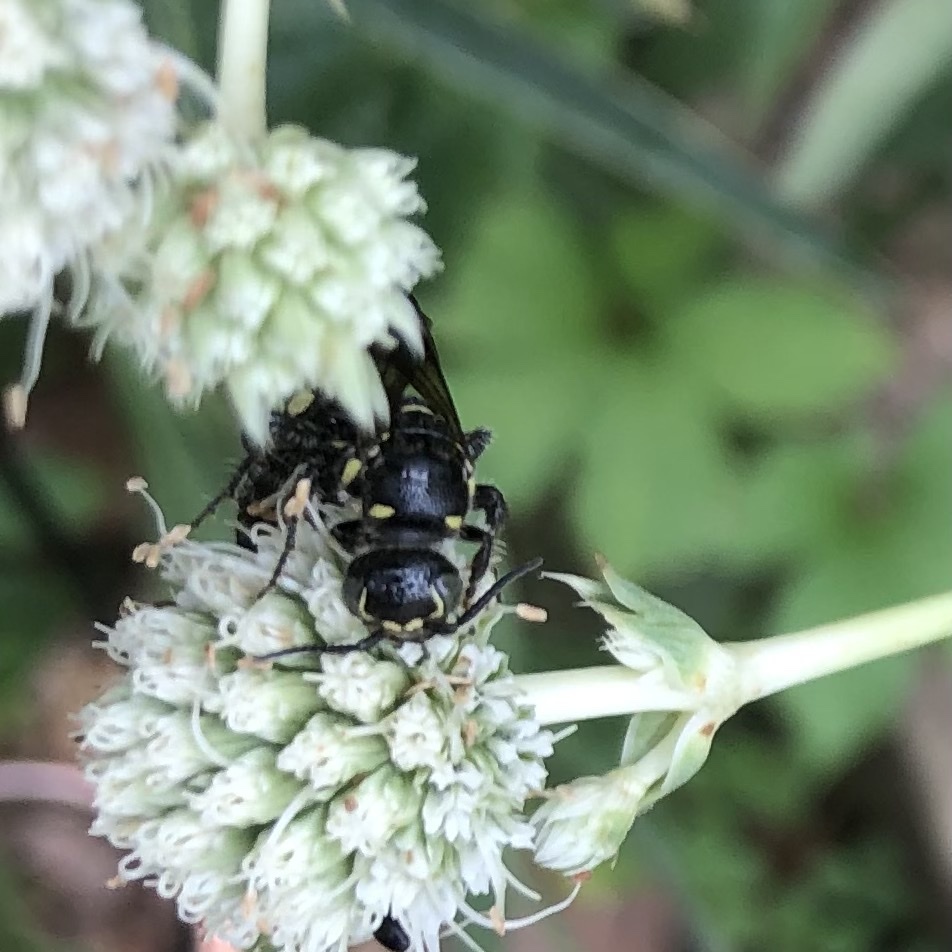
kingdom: Animalia
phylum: Arthropoda
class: Insecta
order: Hymenoptera
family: Tiphiidae
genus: Myzinum
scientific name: Myzinum obscurum
